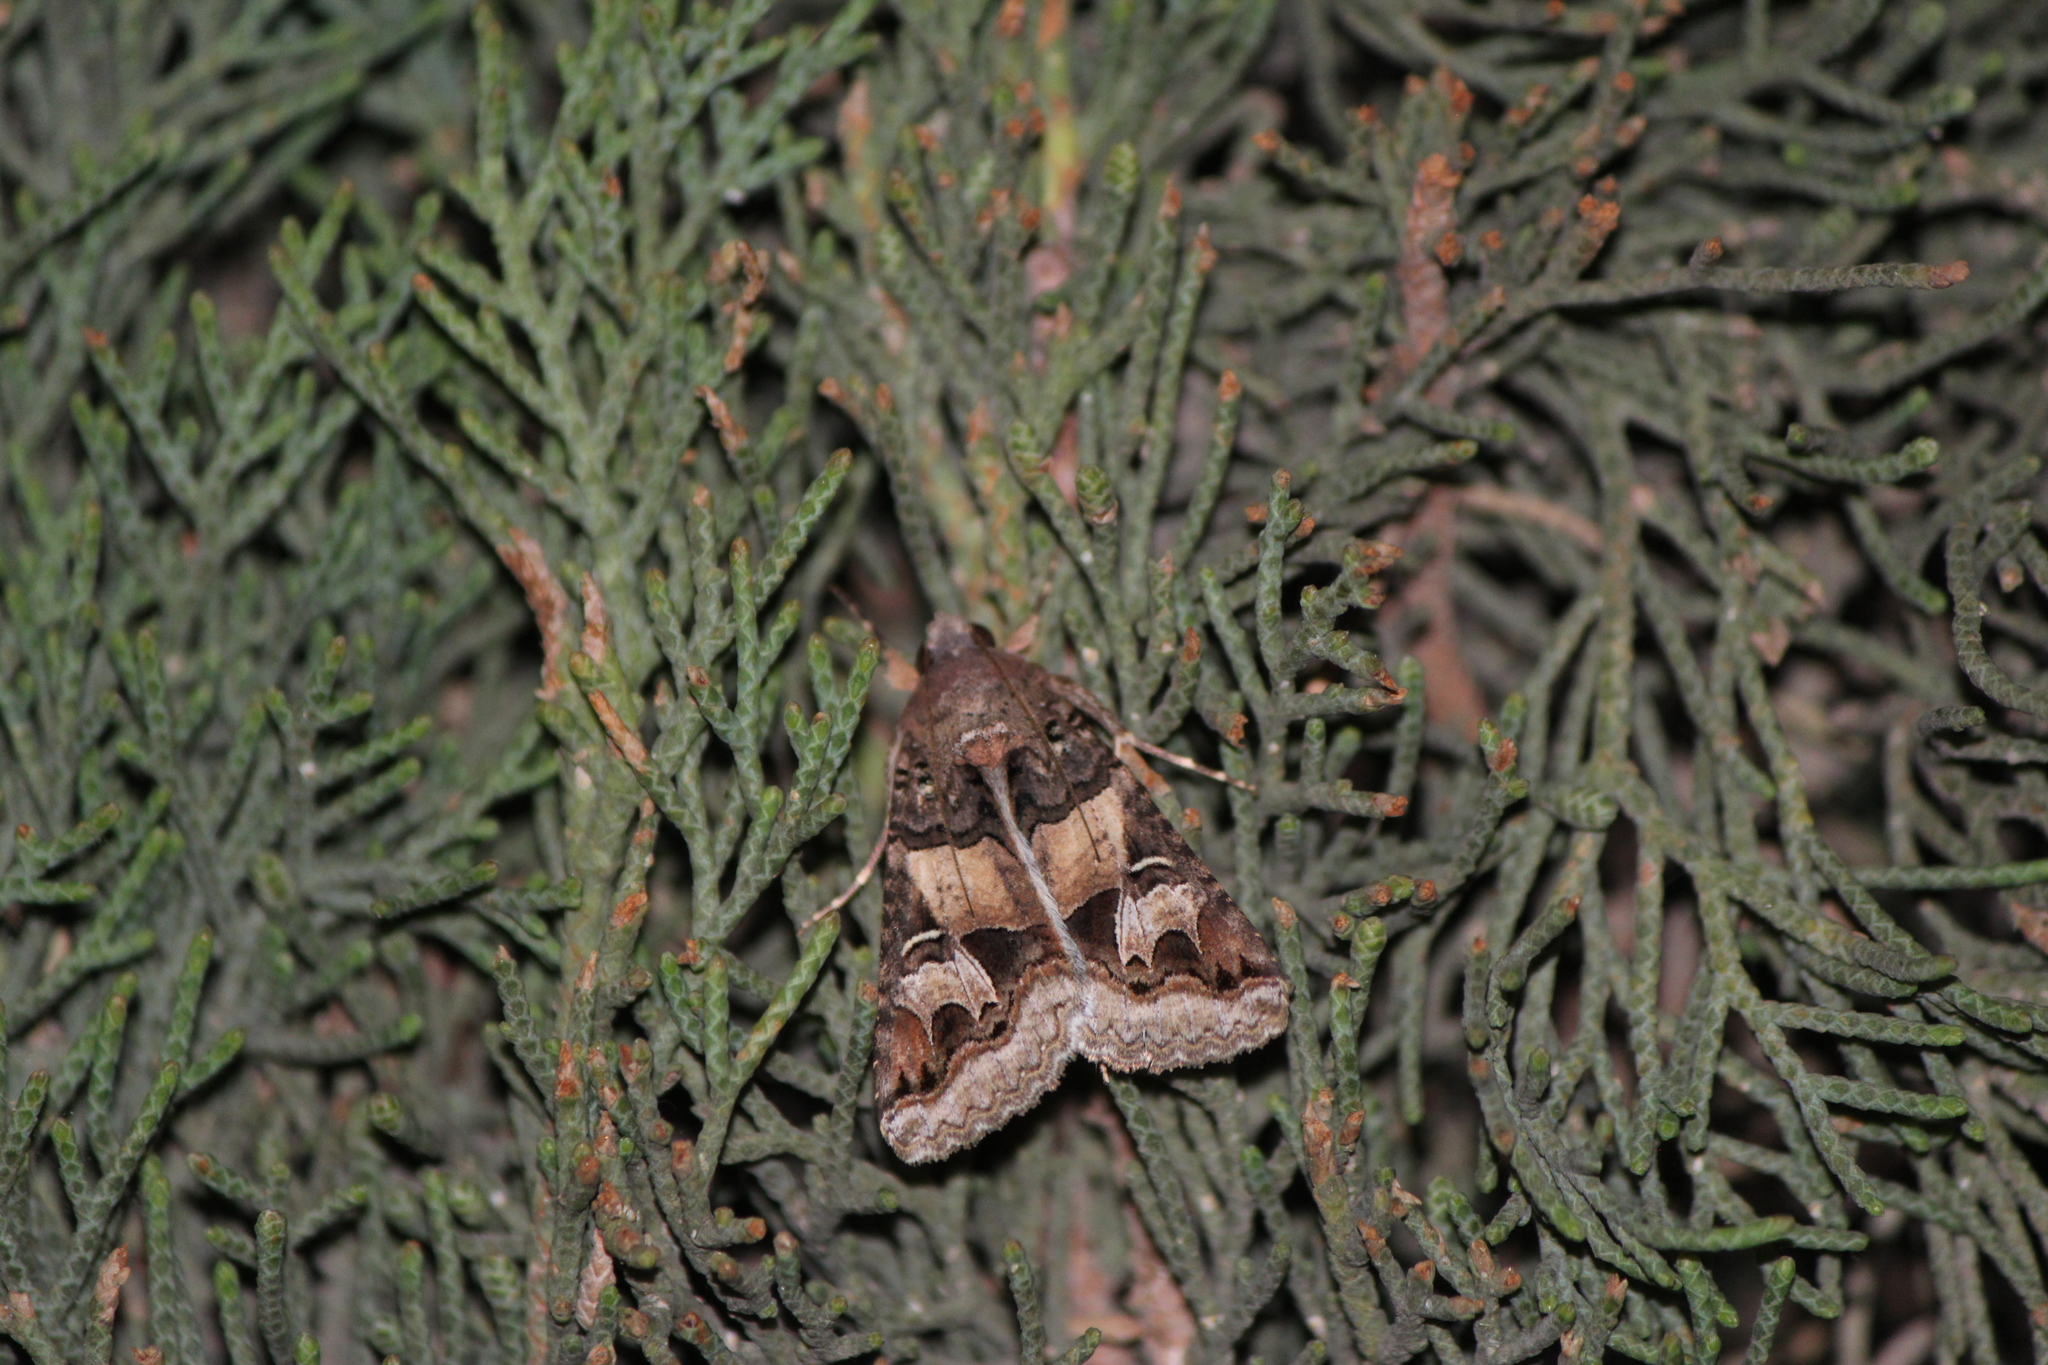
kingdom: Animalia
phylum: Arthropoda
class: Insecta
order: Lepidoptera
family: Erebidae
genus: Melipotis
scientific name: Melipotis novanda
